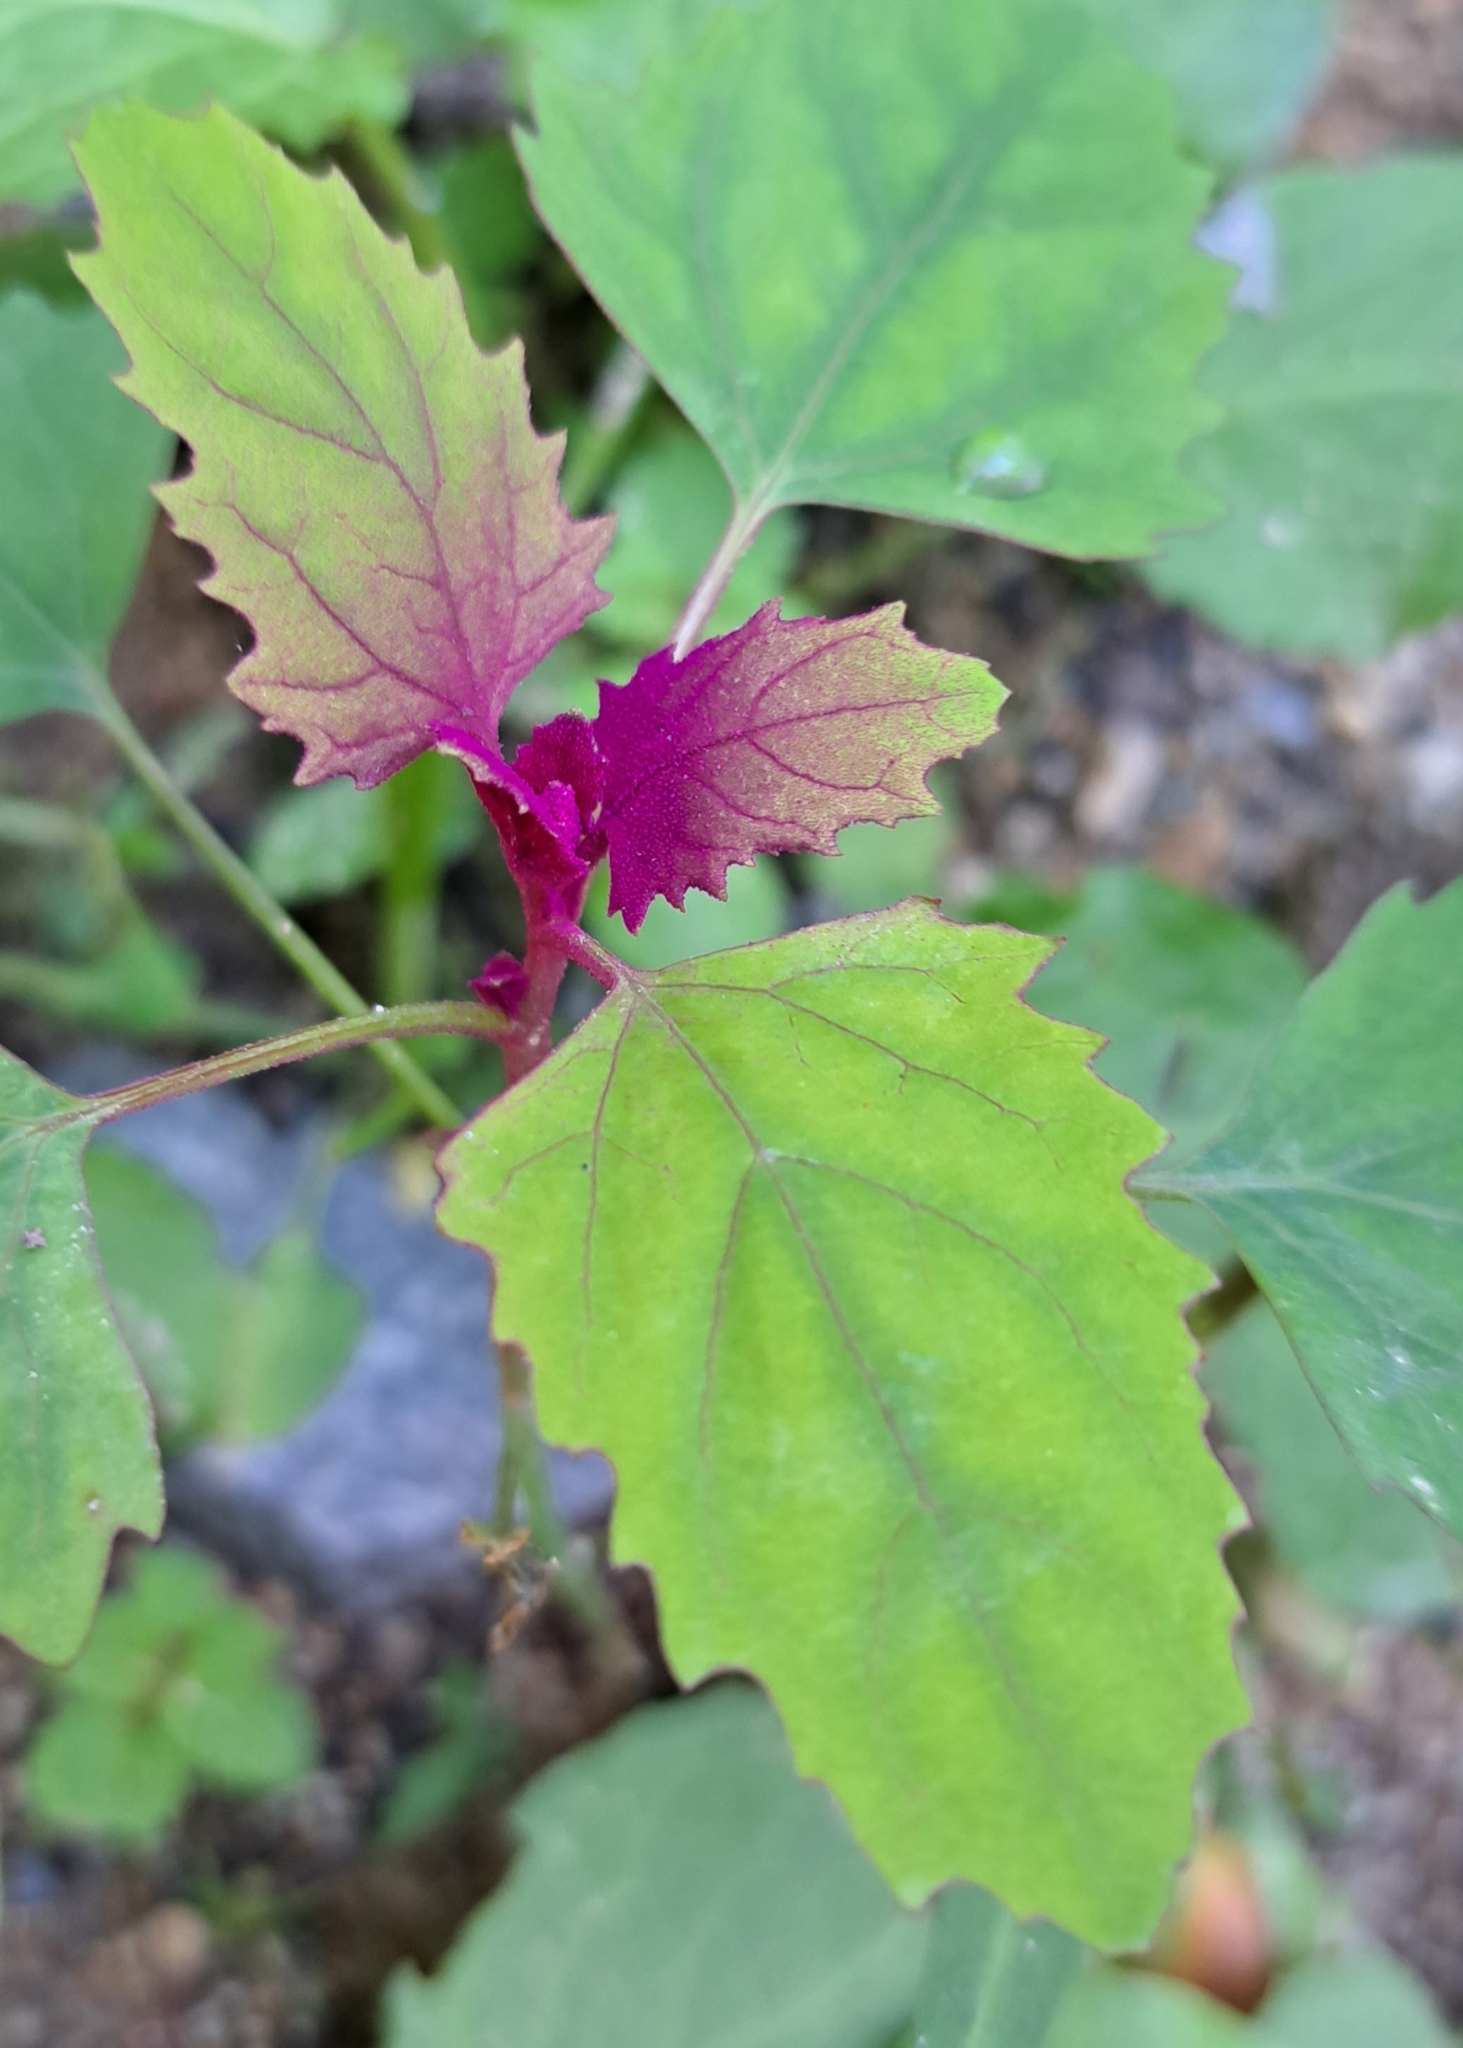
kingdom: Plantae
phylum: Tracheophyta
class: Magnoliopsida
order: Caryophyllales
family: Amaranthaceae
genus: Chenopodium
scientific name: Chenopodium giganteum
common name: Magentaspreen
